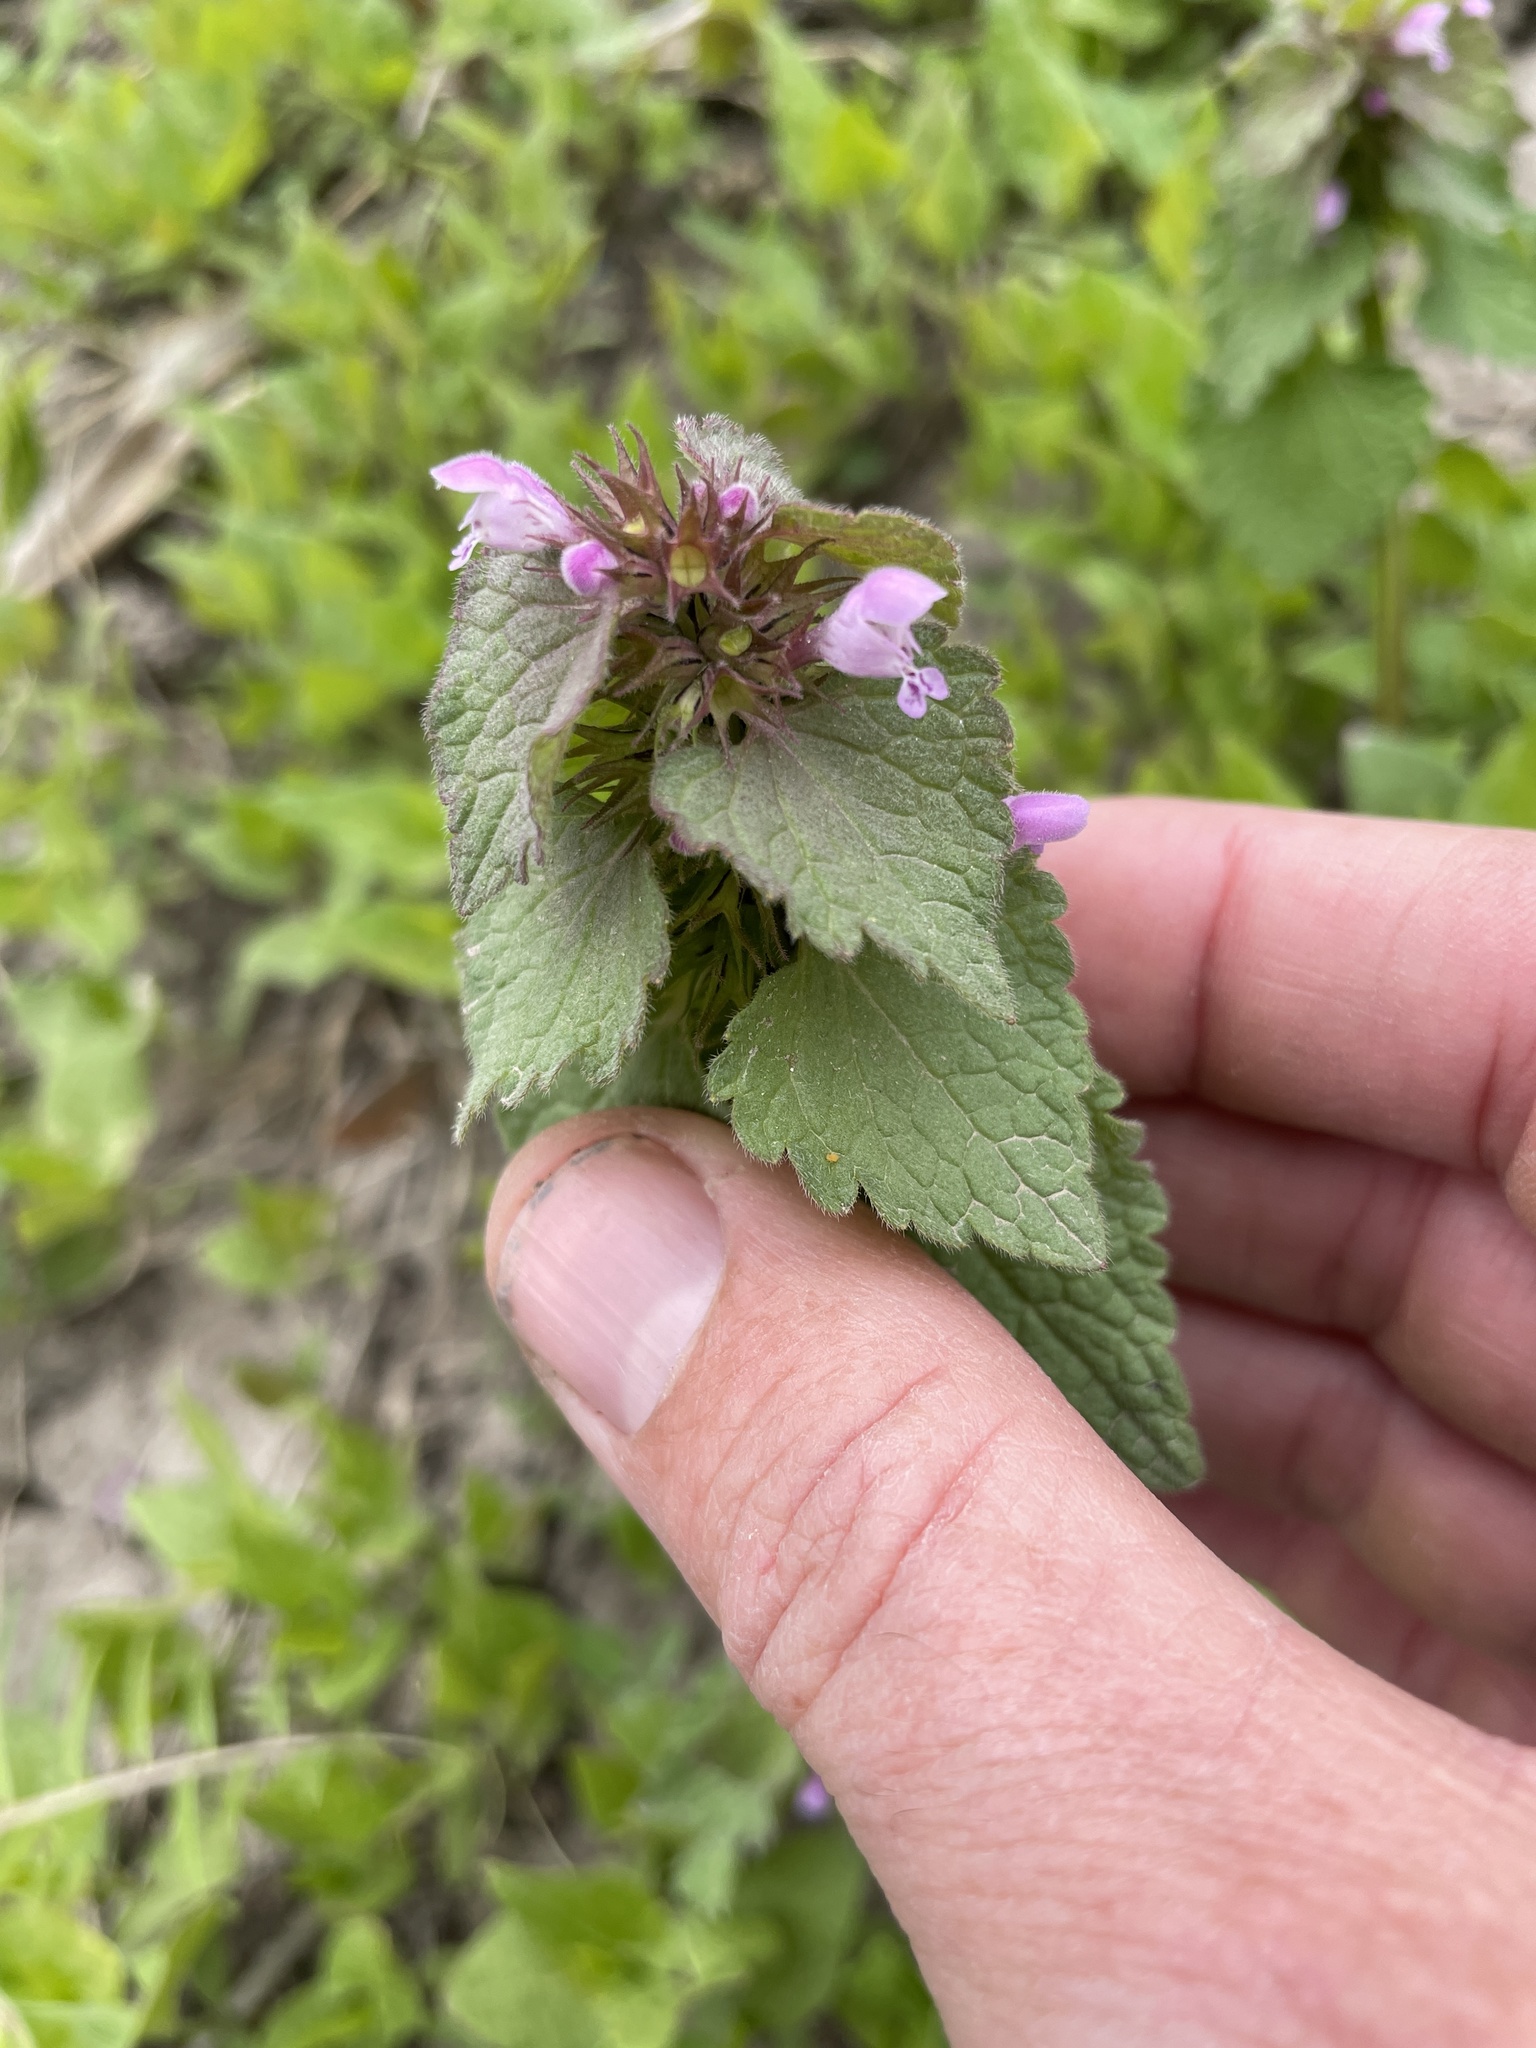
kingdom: Plantae
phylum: Tracheophyta
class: Magnoliopsida
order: Lamiales
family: Lamiaceae
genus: Lamium
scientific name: Lamium purpureum
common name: Red dead-nettle
